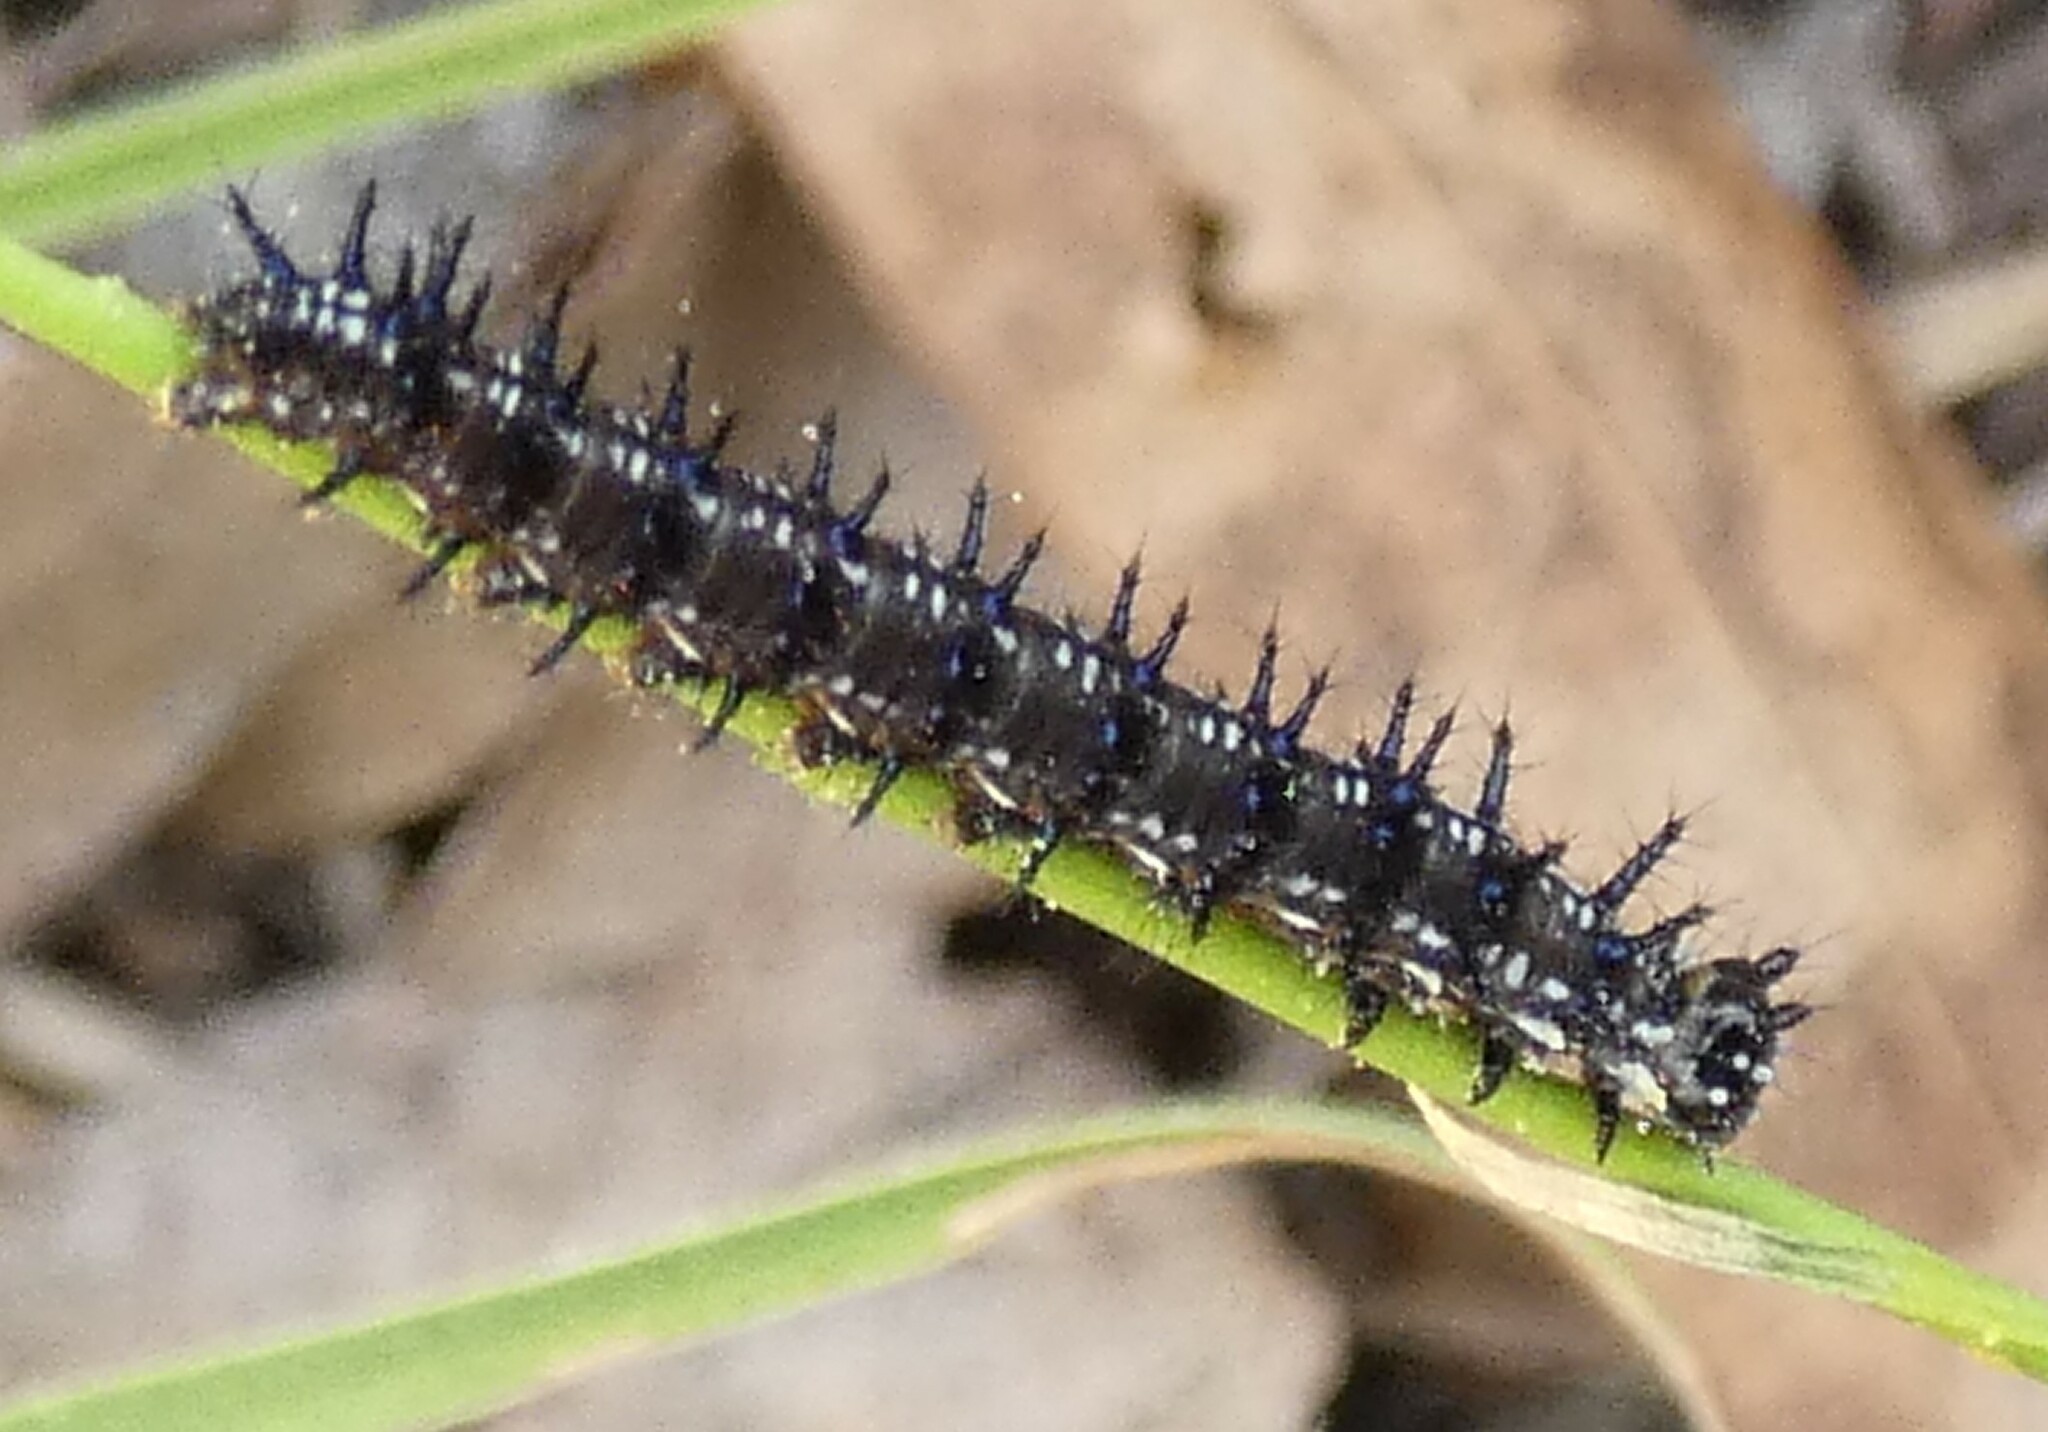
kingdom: Animalia
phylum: Arthropoda
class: Insecta
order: Lepidoptera
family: Nymphalidae
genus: Junonia
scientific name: Junonia coenia
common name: Common buckeye
